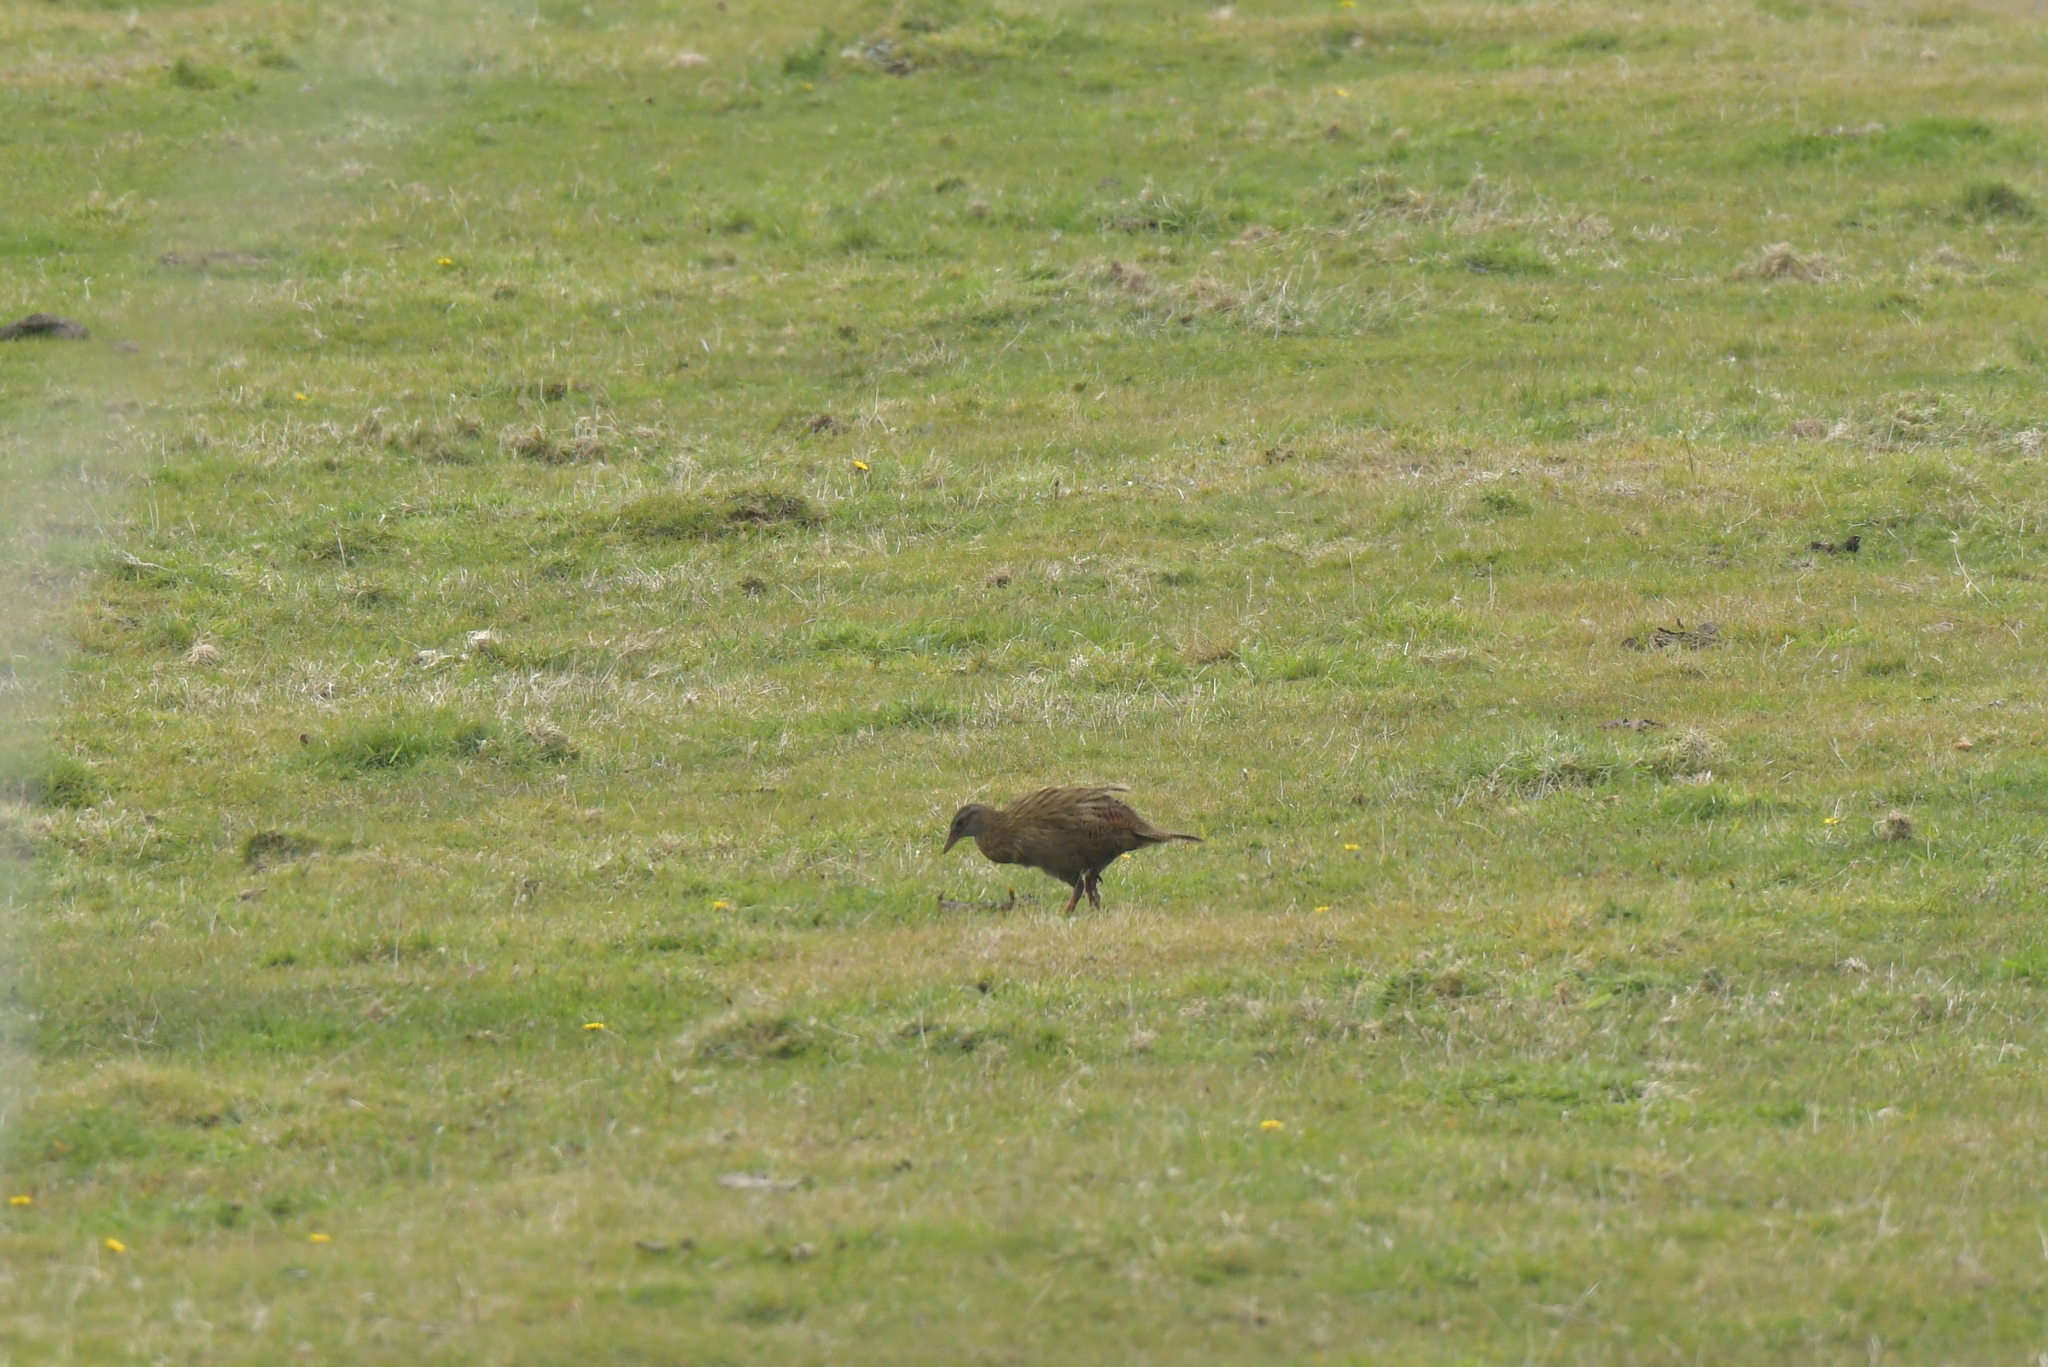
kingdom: Animalia
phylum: Chordata
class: Aves
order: Gruiformes
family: Rallidae
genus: Gallirallus
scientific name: Gallirallus australis
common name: Weka
